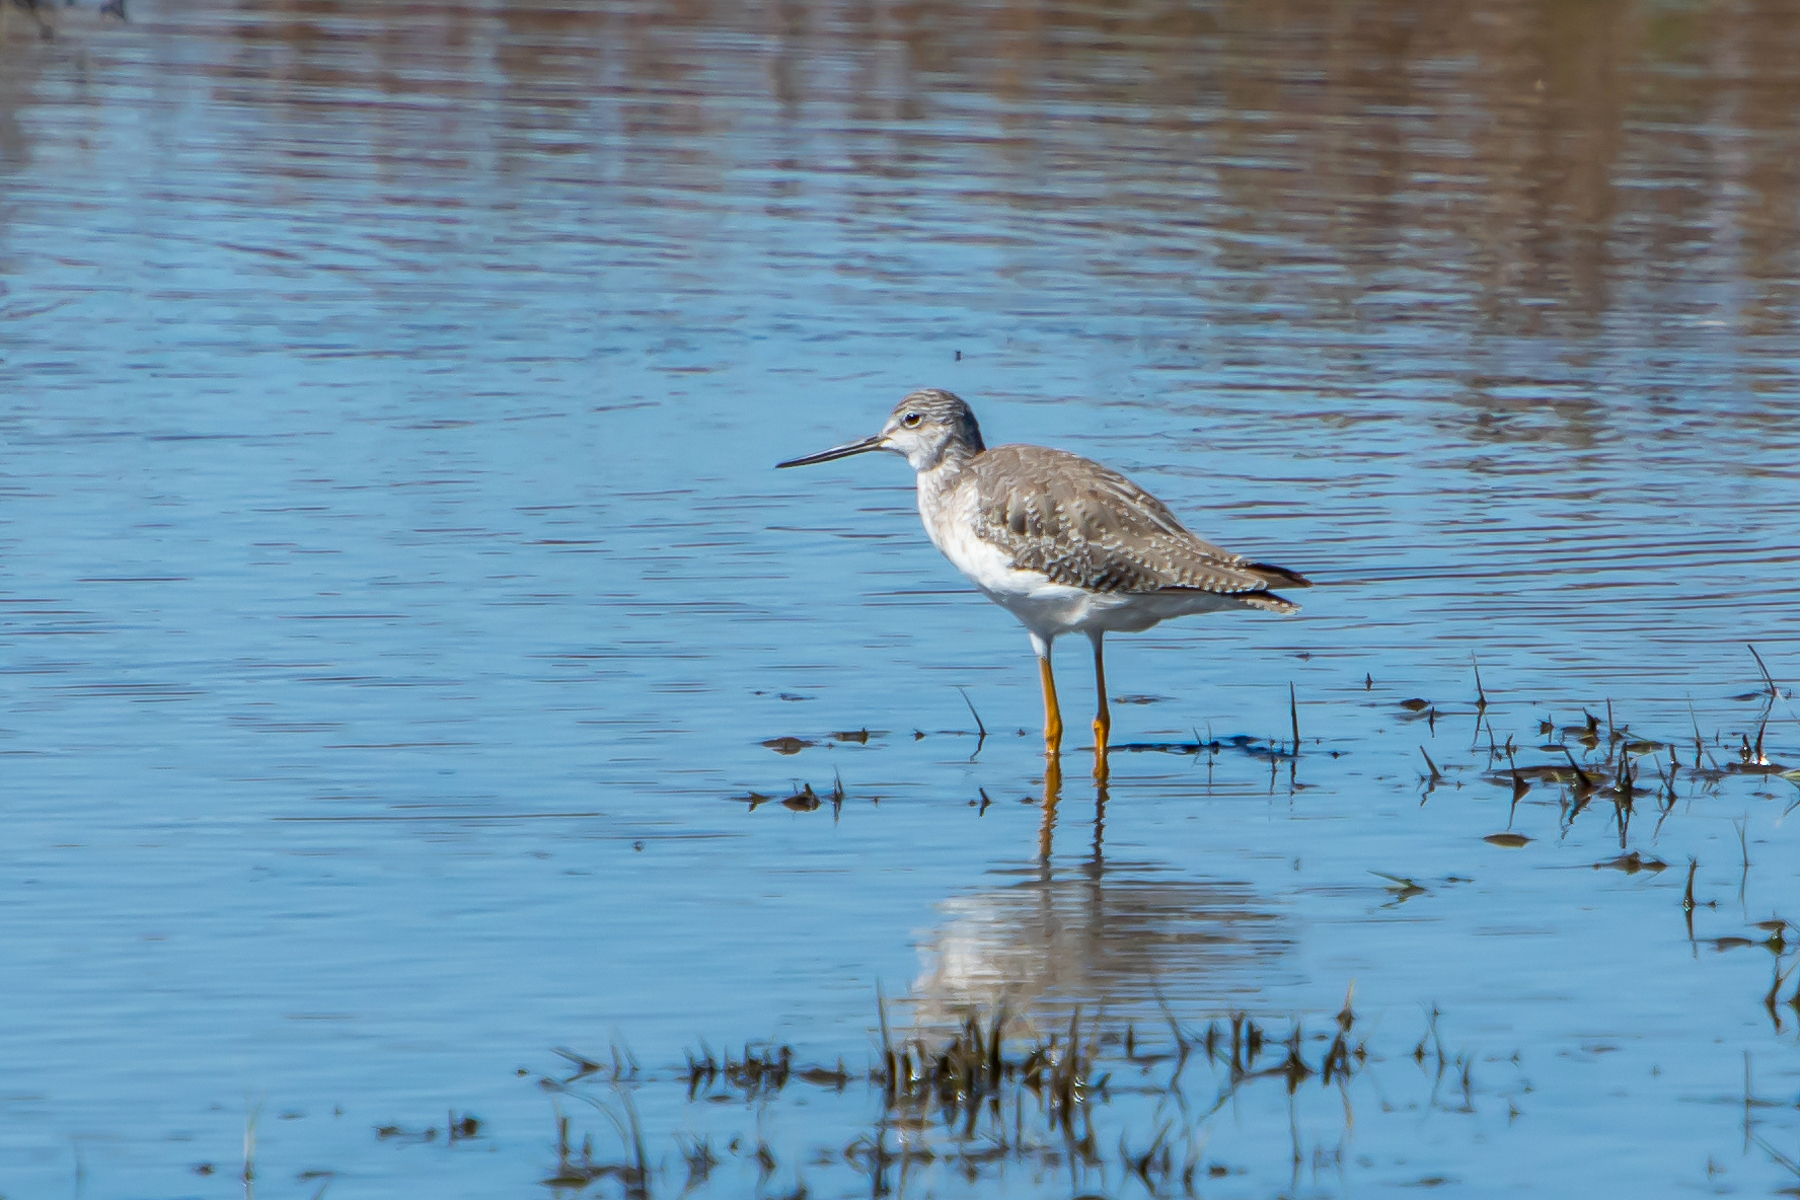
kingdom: Animalia
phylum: Chordata
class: Aves
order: Charadriiformes
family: Scolopacidae
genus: Tringa
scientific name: Tringa melanoleuca
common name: Greater yellowlegs
